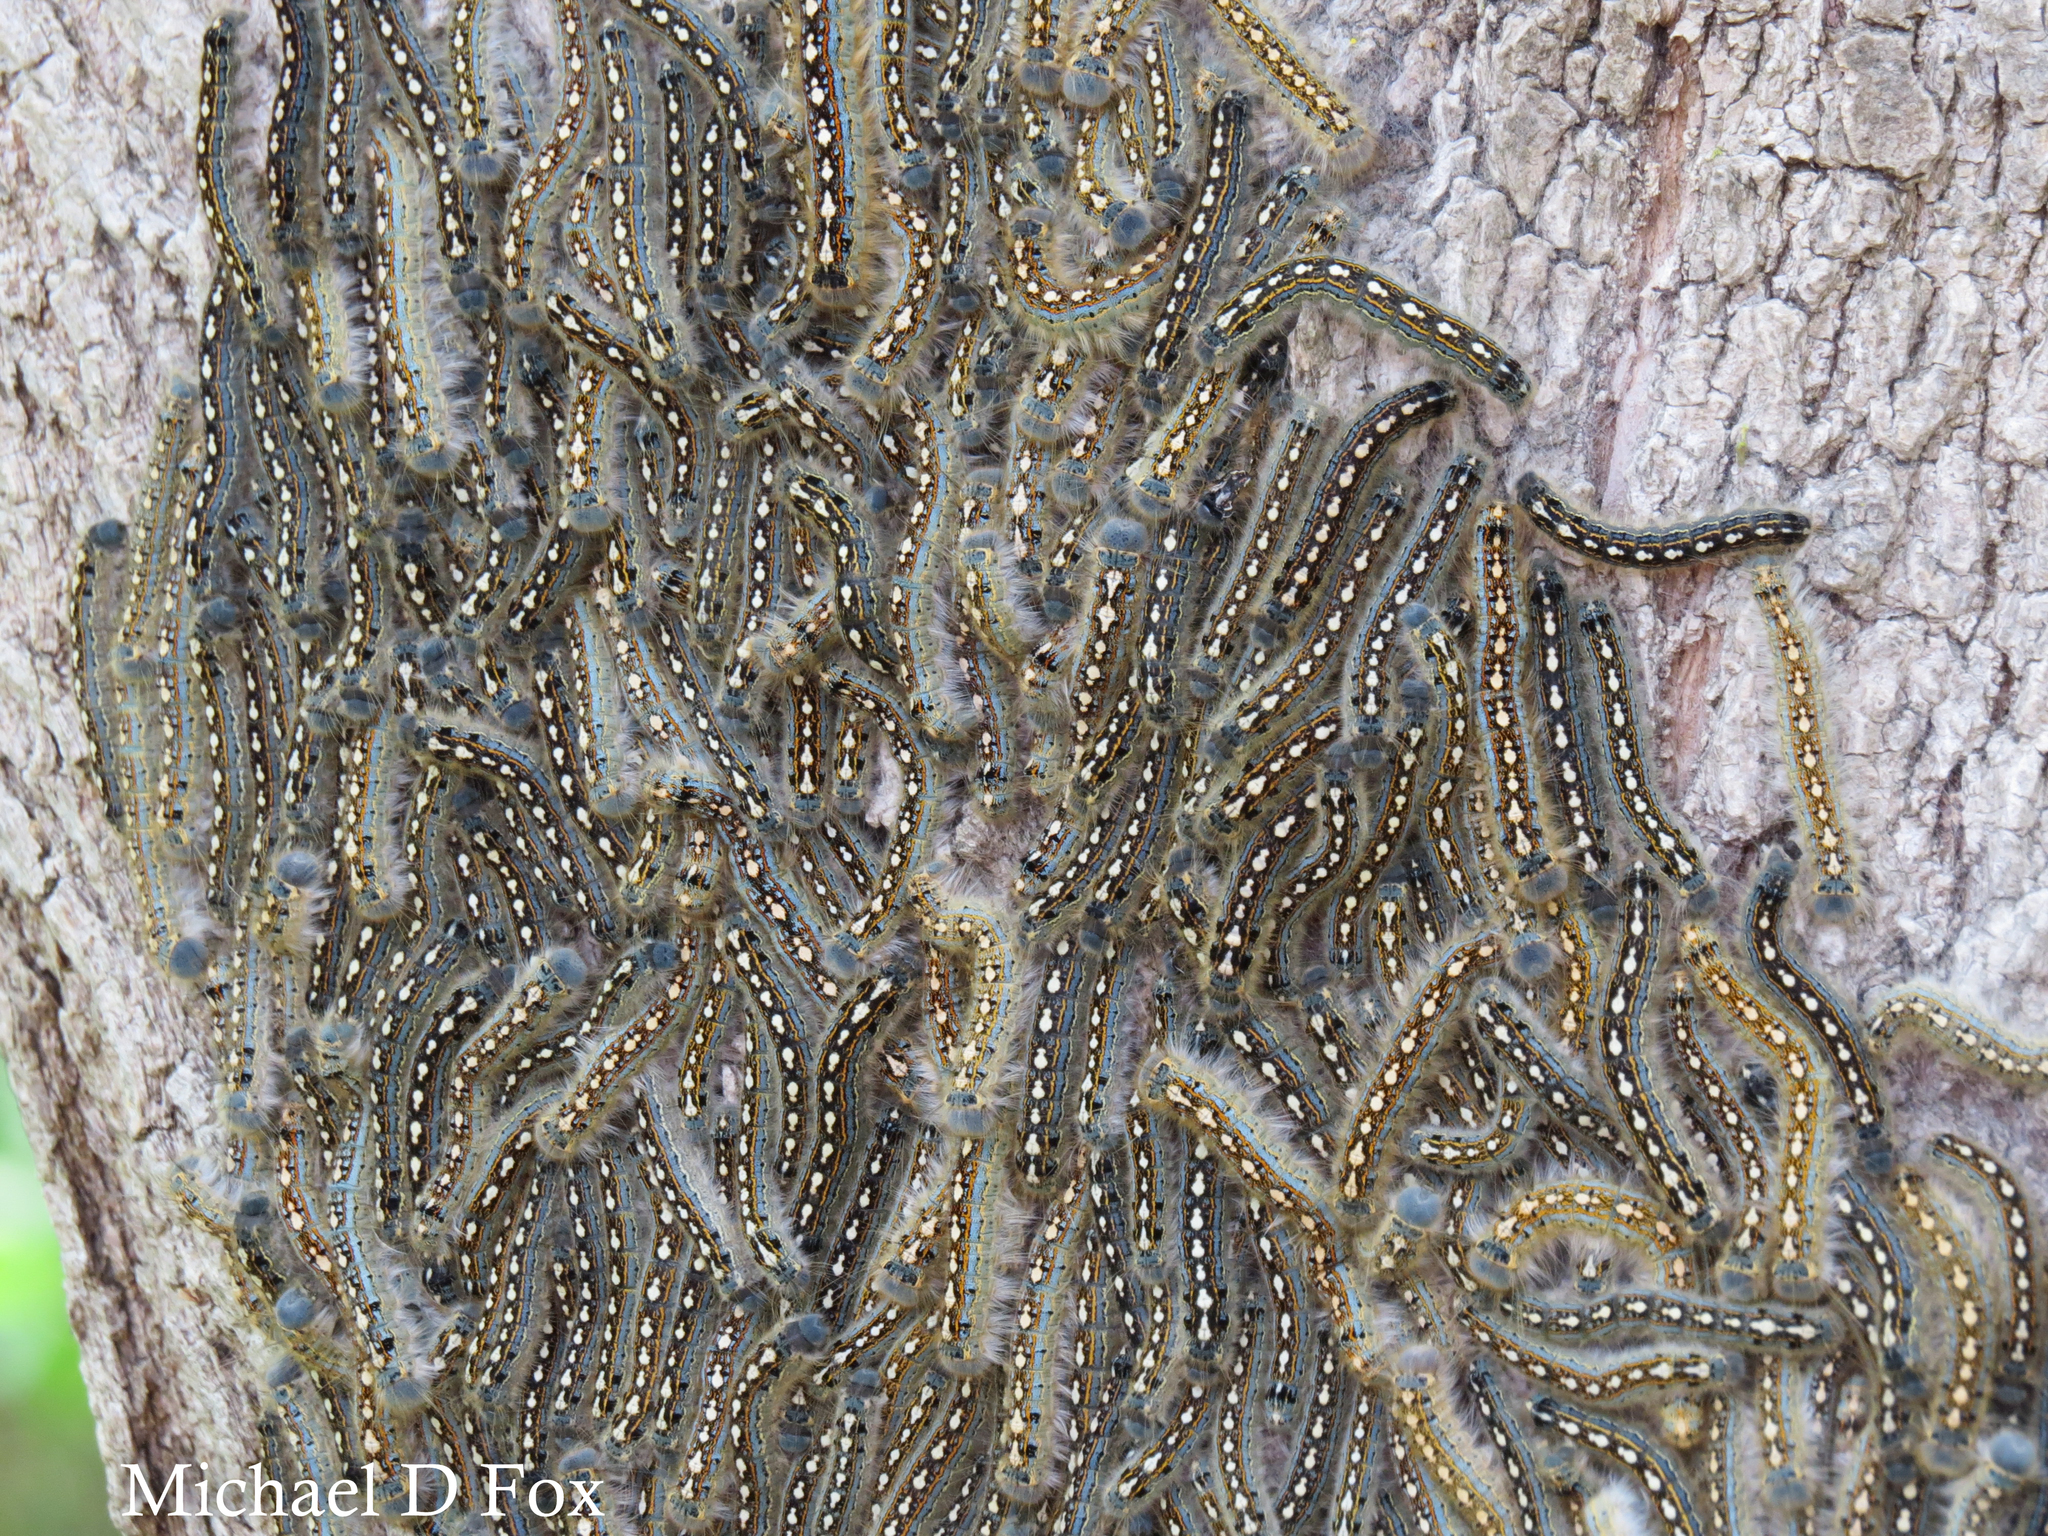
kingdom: Animalia
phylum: Arthropoda
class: Insecta
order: Lepidoptera
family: Lasiocampidae
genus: Malacosoma
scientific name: Malacosoma disstria
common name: Forest tent caterpillar
